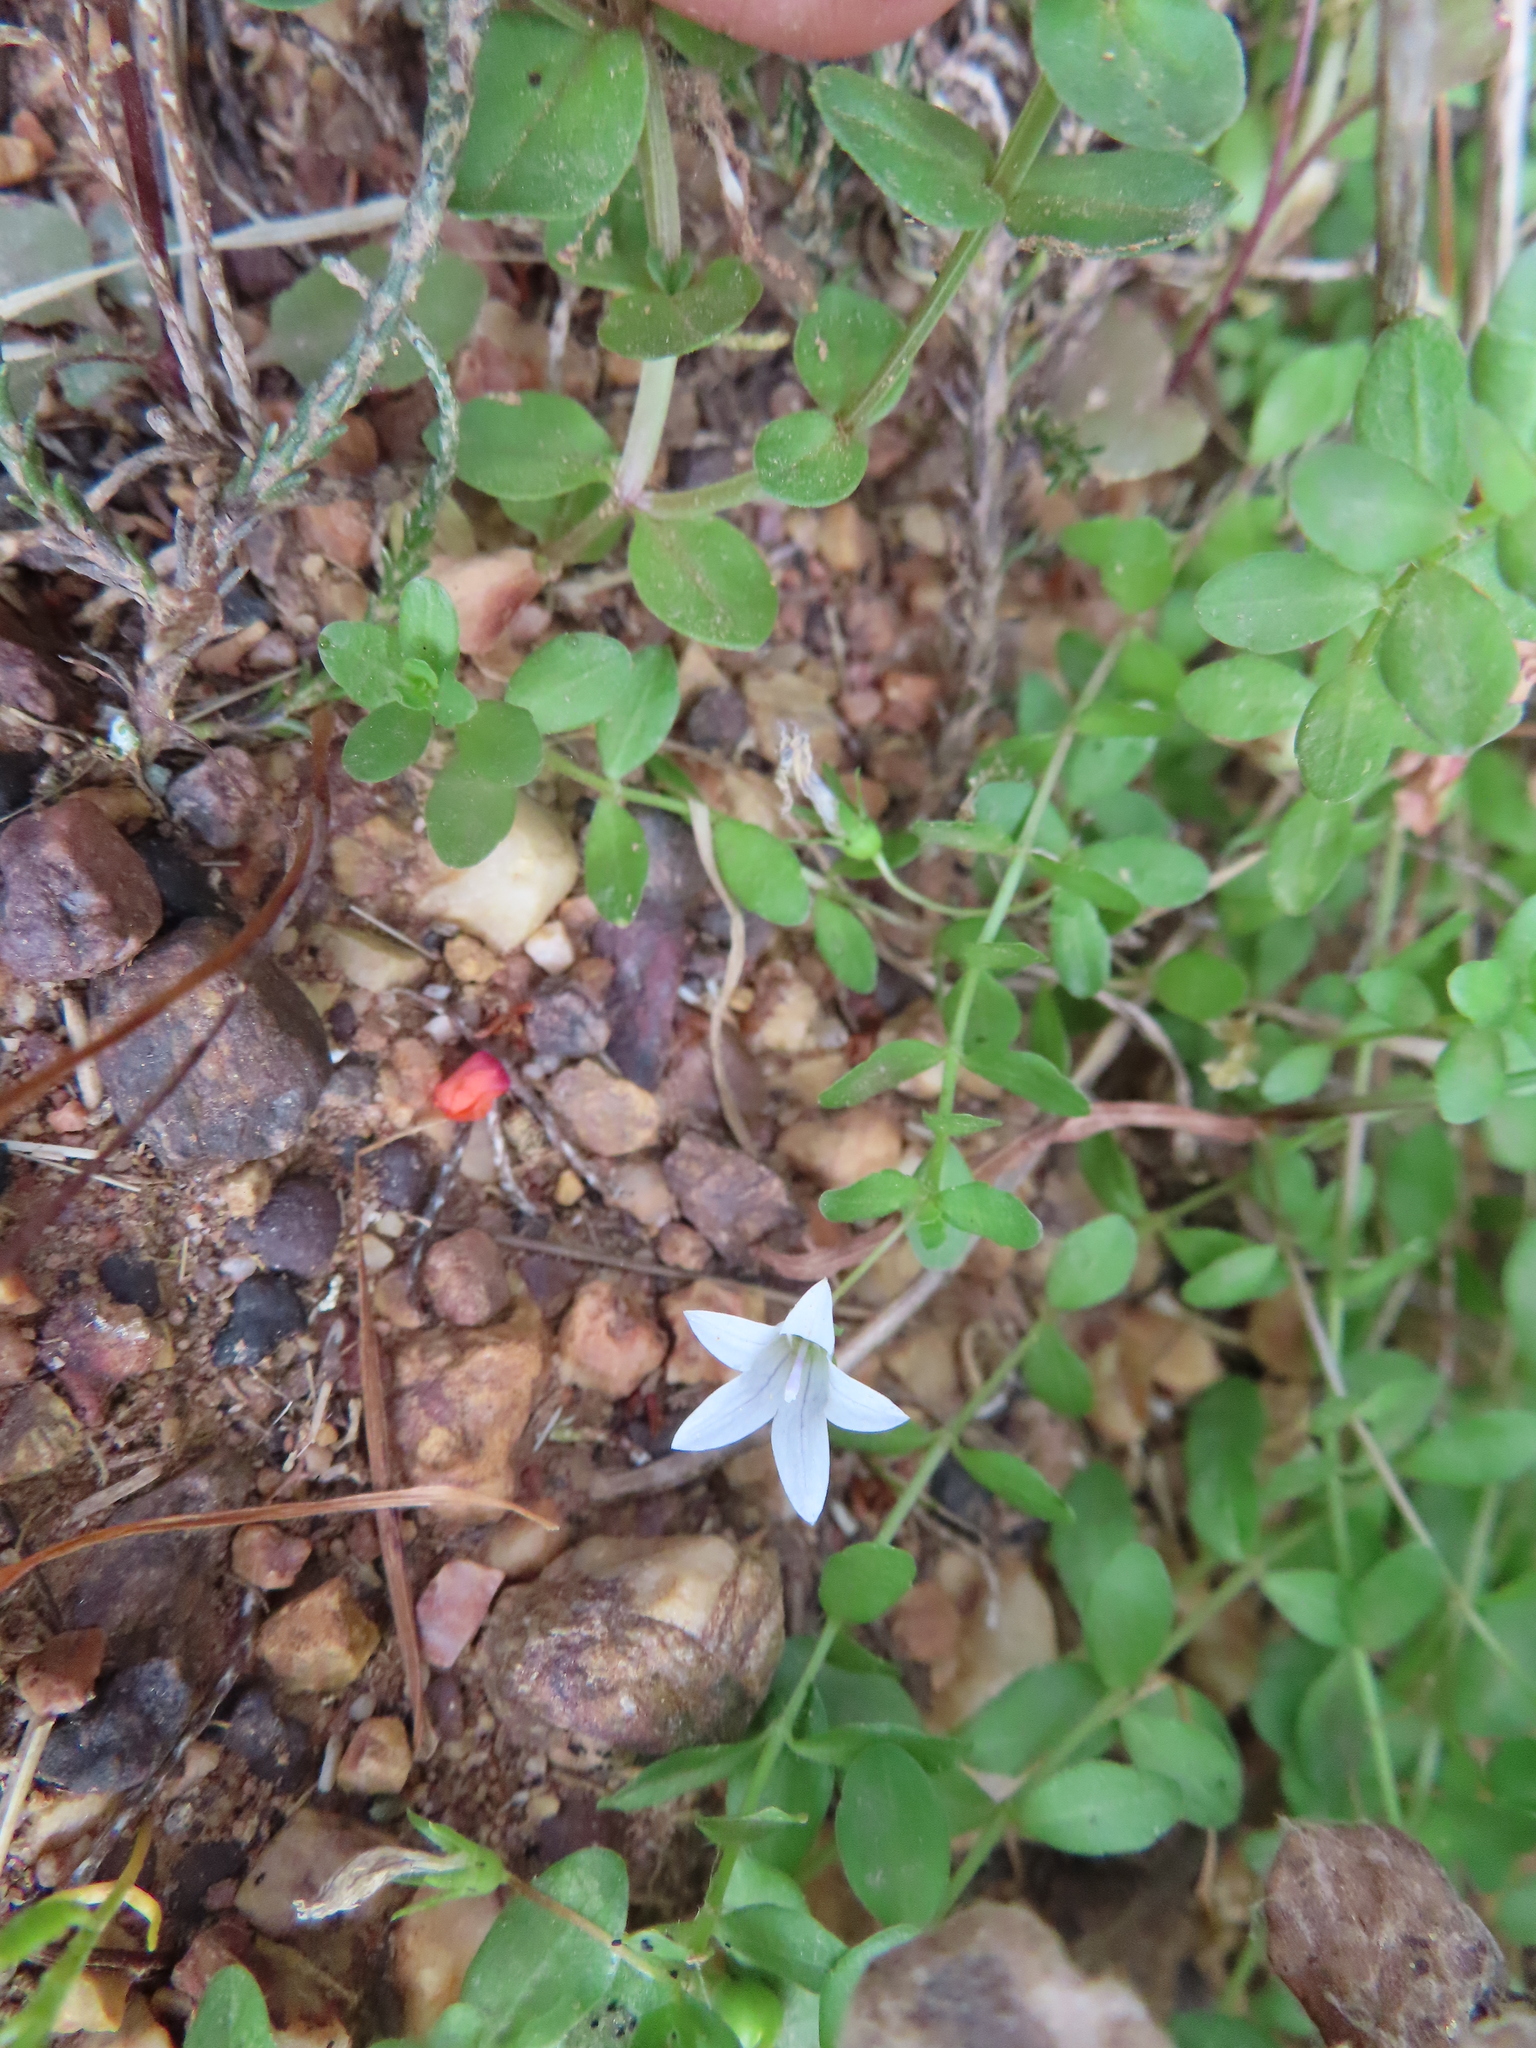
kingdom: Plantae
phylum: Tracheophyta
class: Magnoliopsida
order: Asterales
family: Campanulaceae
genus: Wahlenbergia
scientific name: Wahlenbergia procumbens
